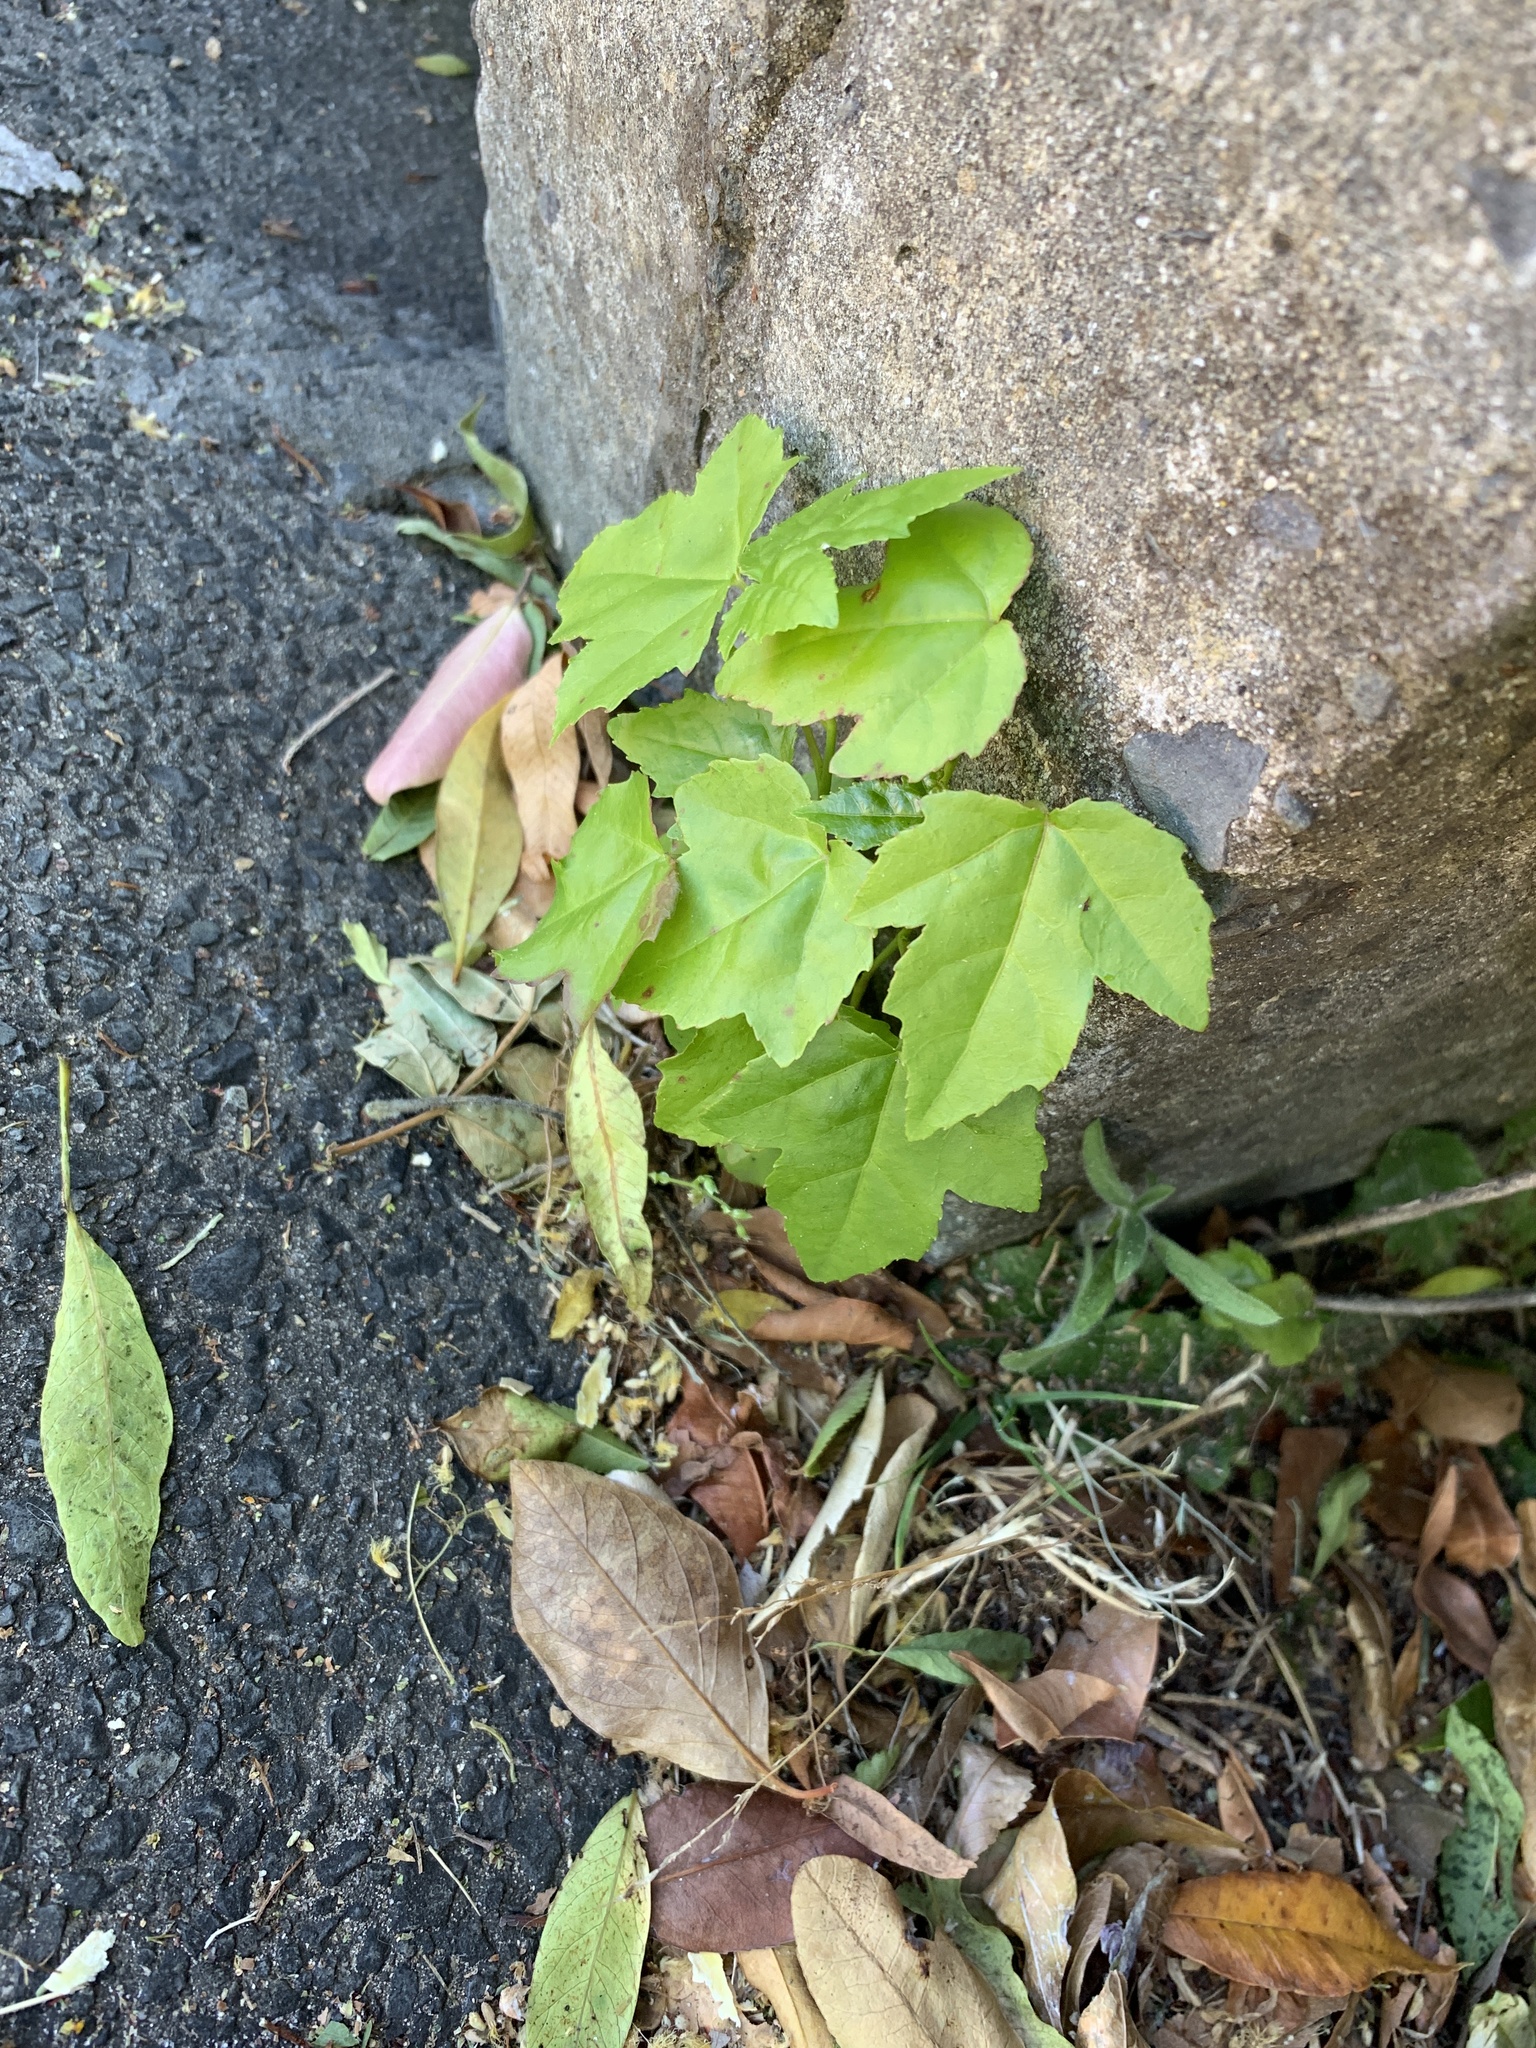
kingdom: Plantae
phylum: Tracheophyta
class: Magnoliopsida
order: Saxifragales
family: Altingiaceae
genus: Liquidambar
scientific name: Liquidambar styraciflua
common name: Sweet gum
